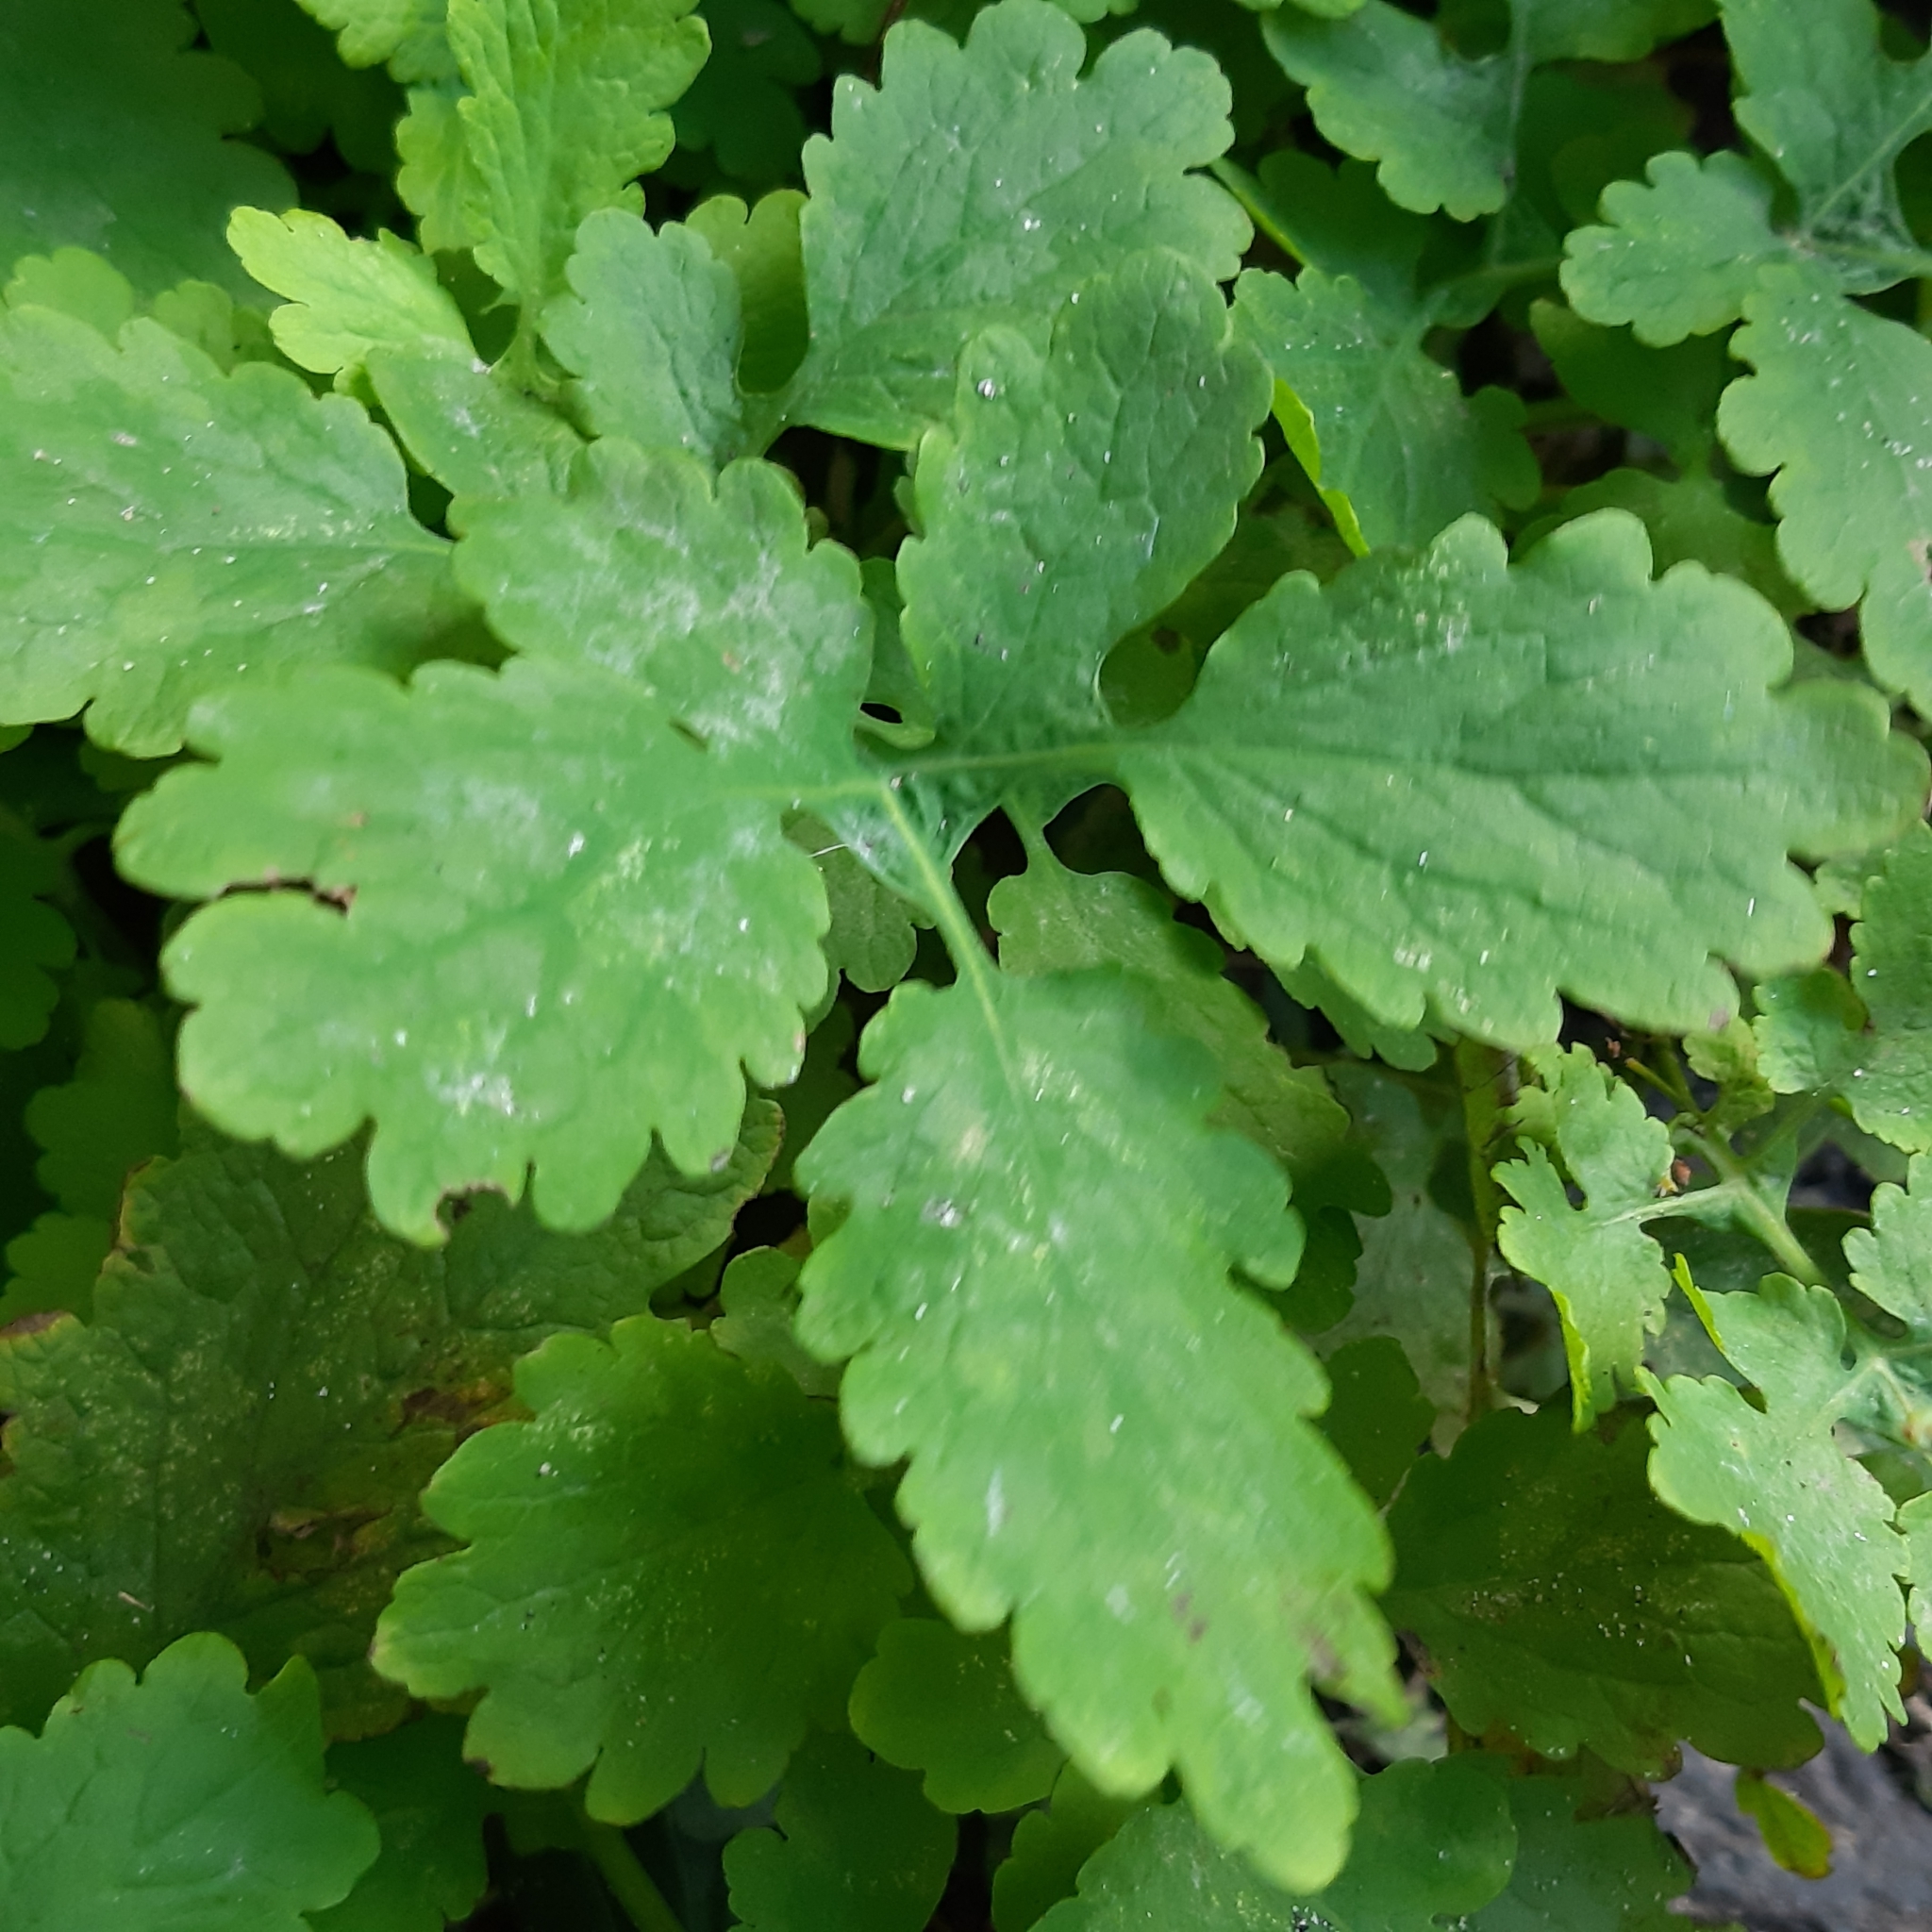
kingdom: Plantae
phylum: Tracheophyta
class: Magnoliopsida
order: Ranunculales
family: Papaveraceae
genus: Chelidonium
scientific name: Chelidonium majus
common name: Greater celandine
